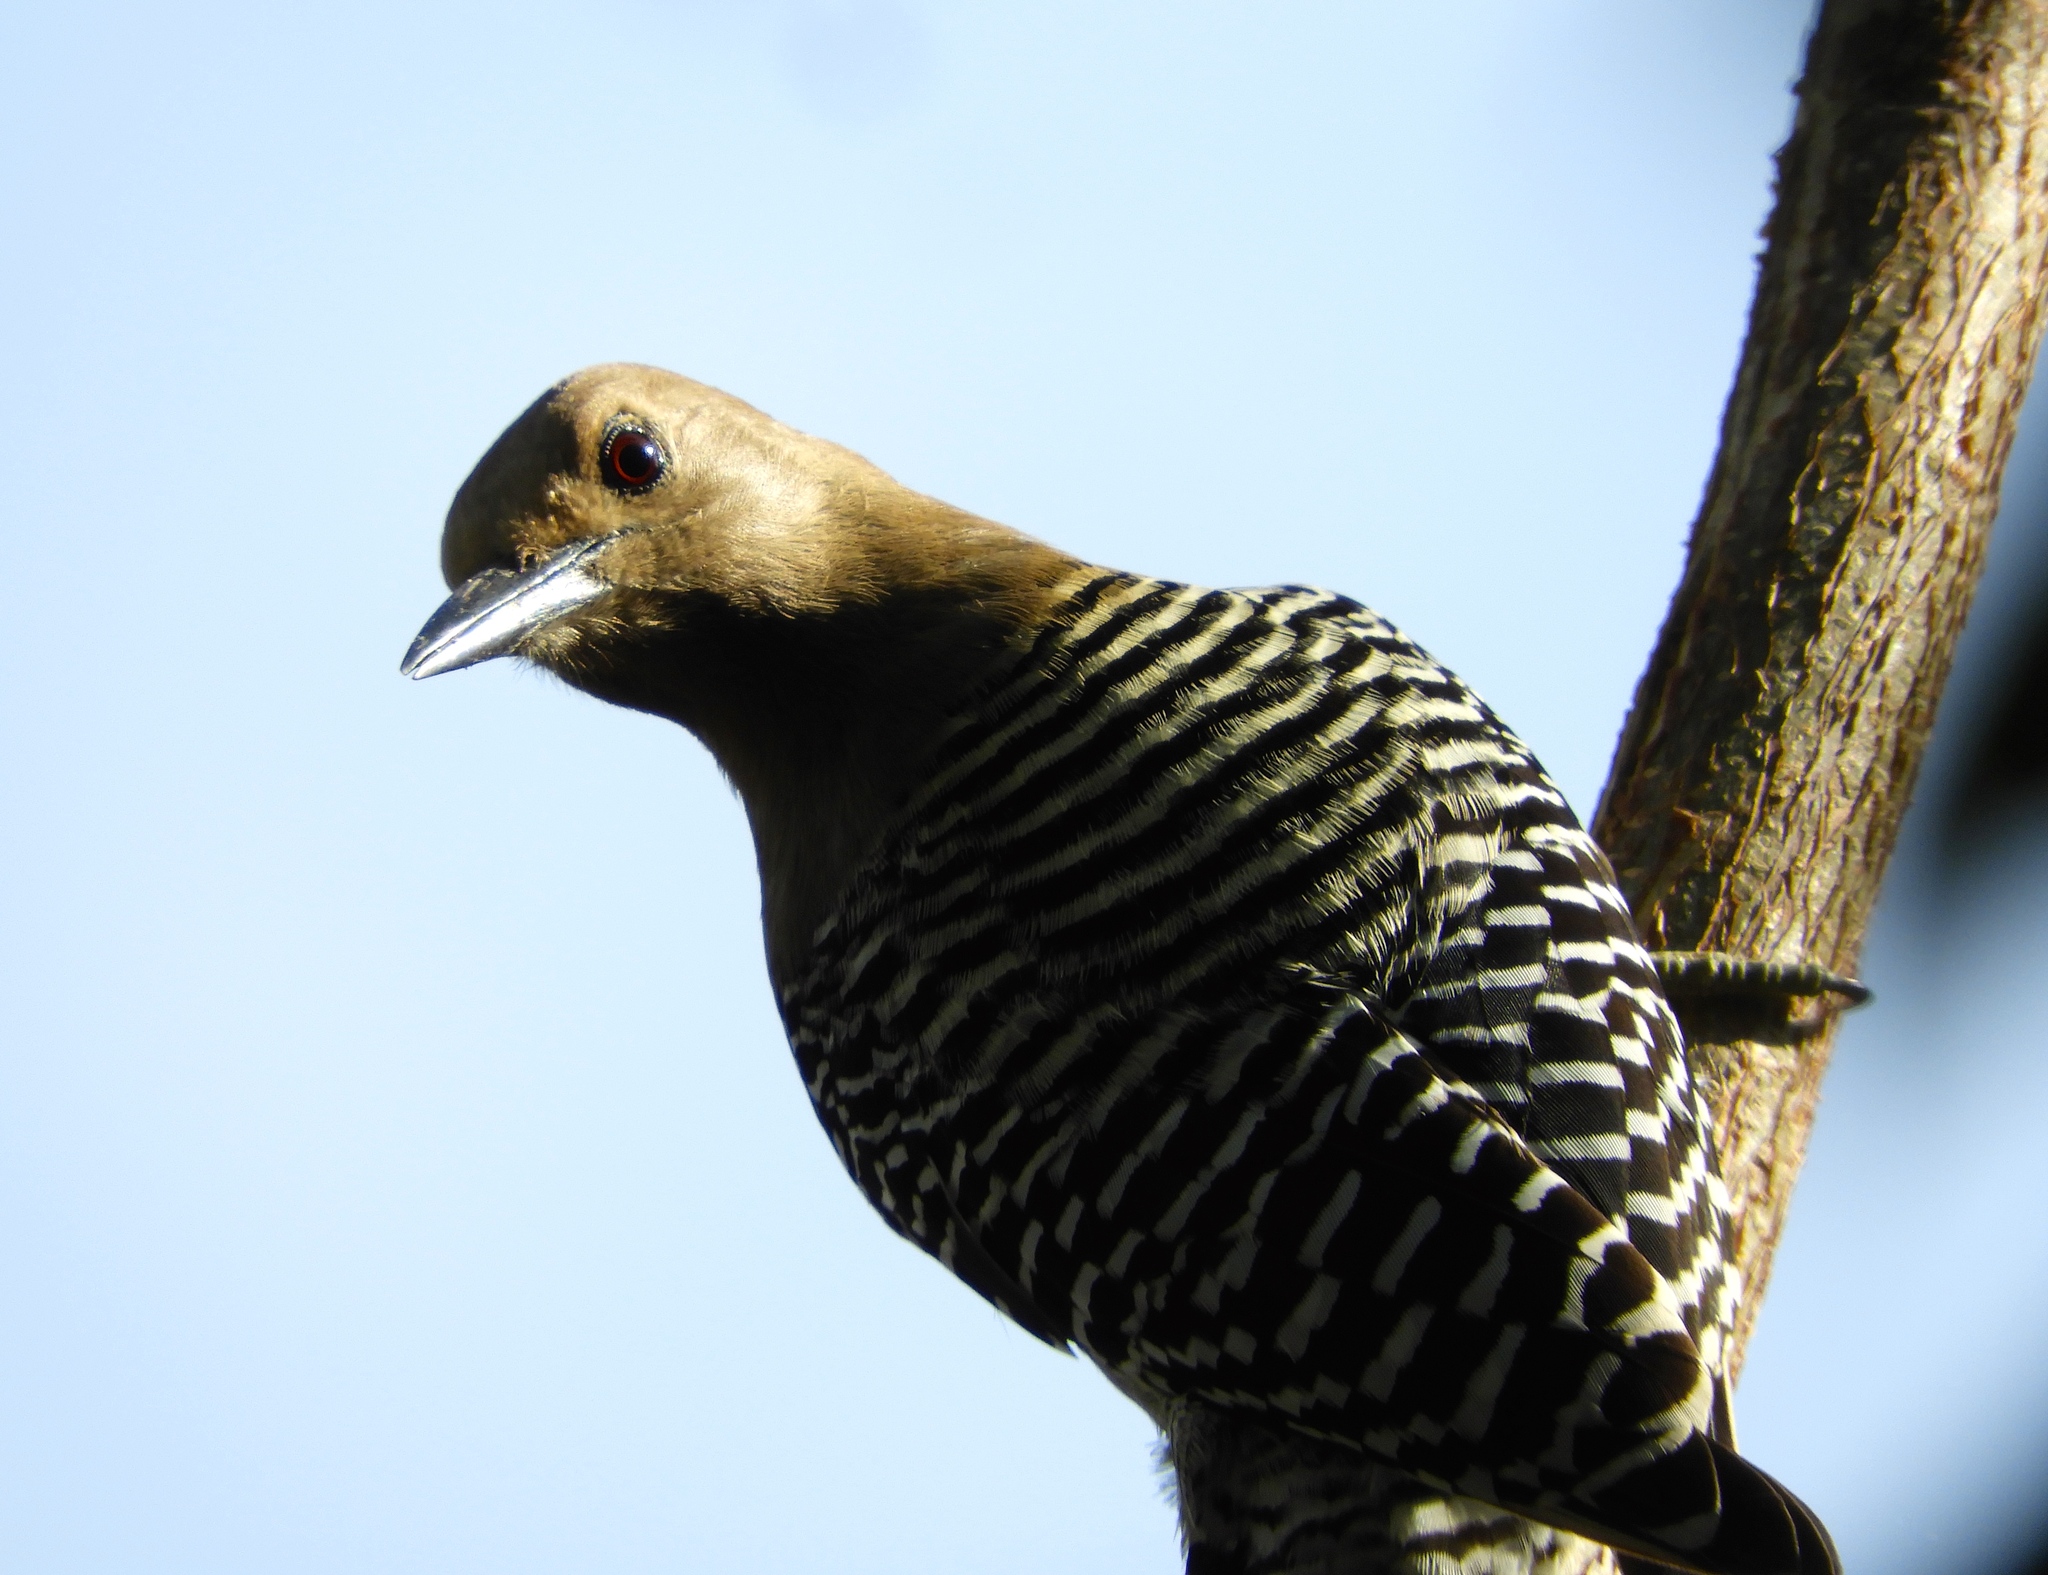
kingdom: Animalia
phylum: Chordata
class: Aves
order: Piciformes
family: Picidae
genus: Melanerpes
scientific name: Melanerpes uropygialis
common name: Gila woodpecker
